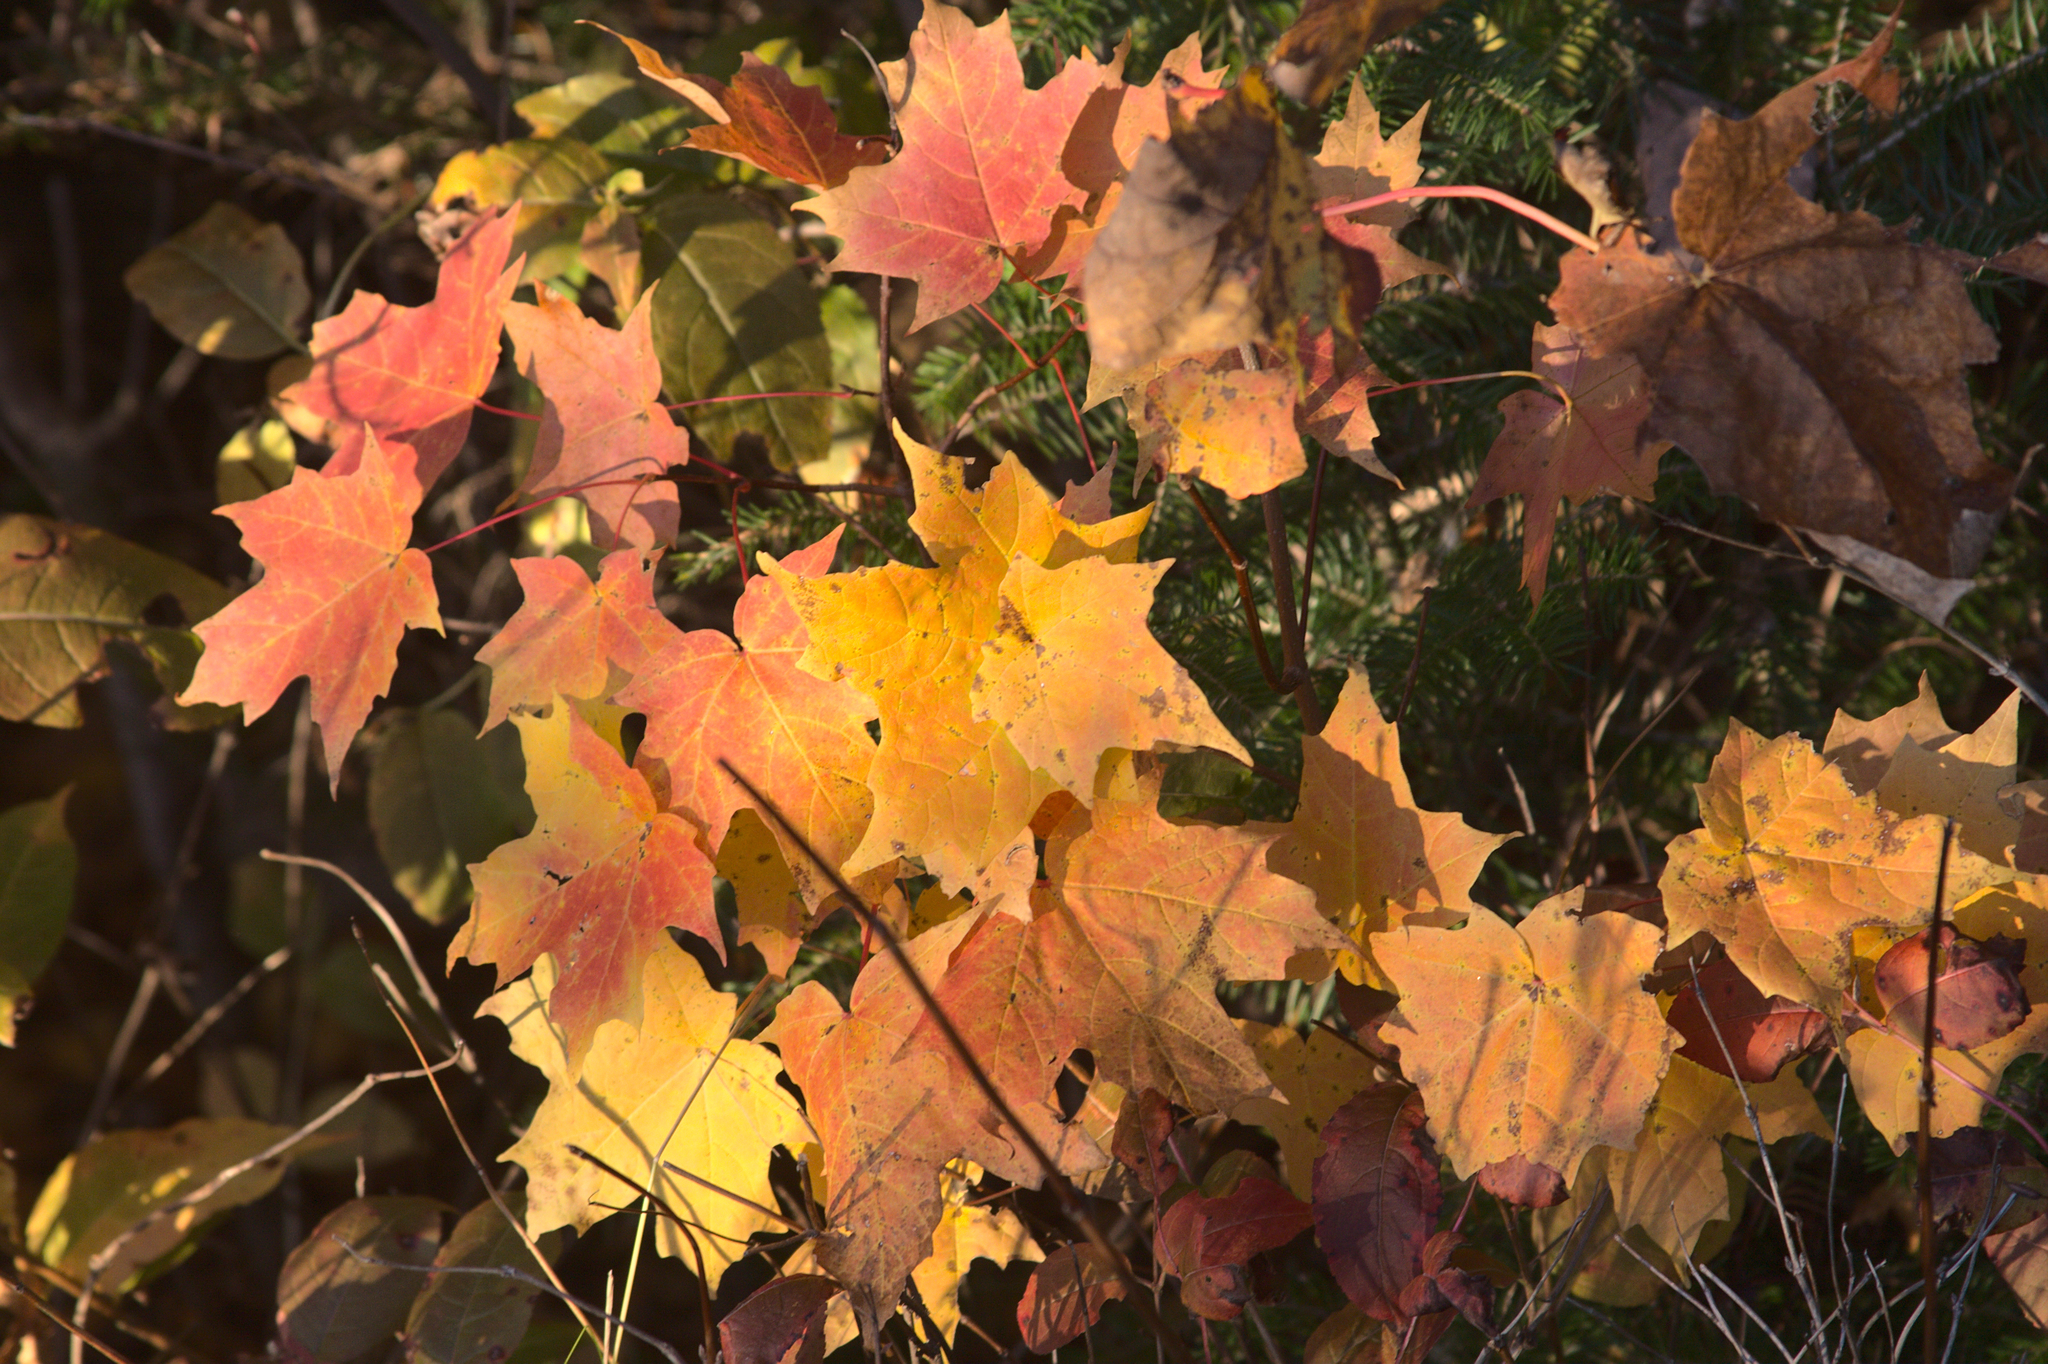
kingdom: Plantae
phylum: Tracheophyta
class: Magnoliopsida
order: Sapindales
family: Sapindaceae
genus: Acer
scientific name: Acer saccharum
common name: Sugar maple
